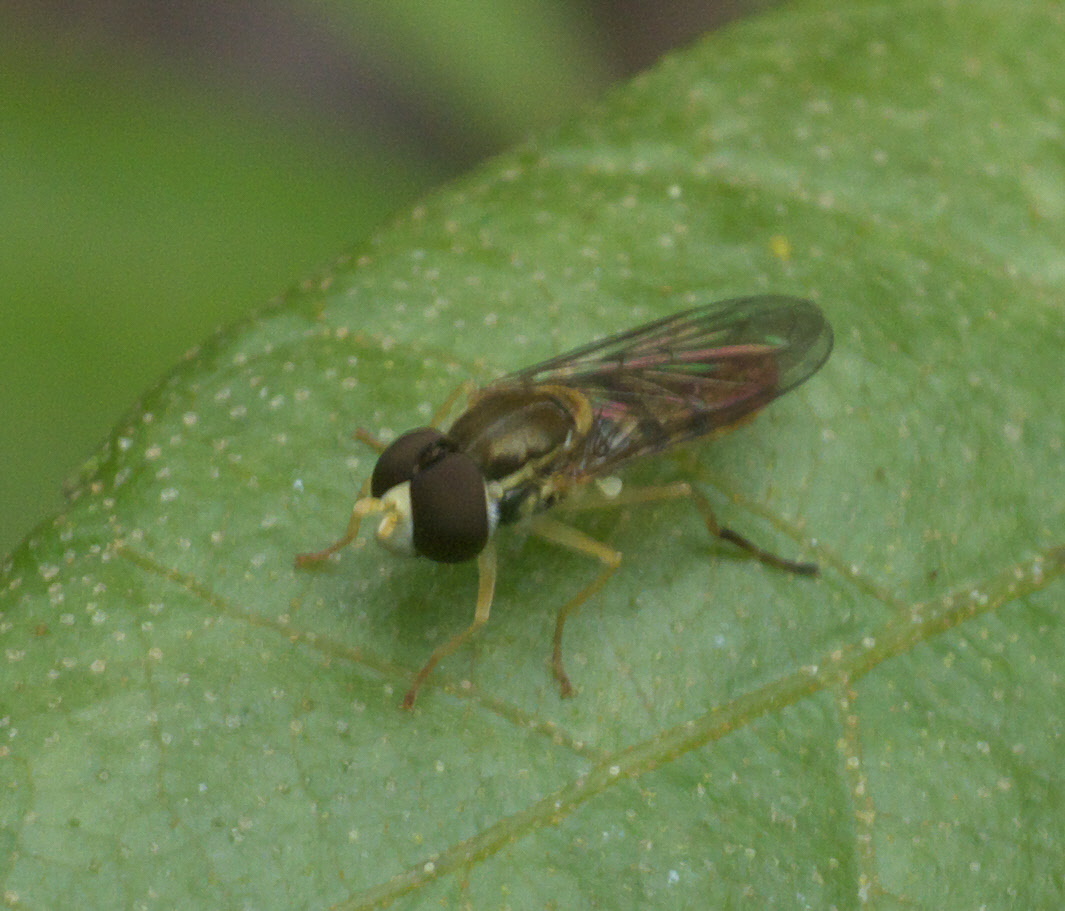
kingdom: Animalia
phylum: Arthropoda
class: Insecta
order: Diptera
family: Syrphidae
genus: Toxomerus
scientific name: Toxomerus marginatus
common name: Syrphid fly
